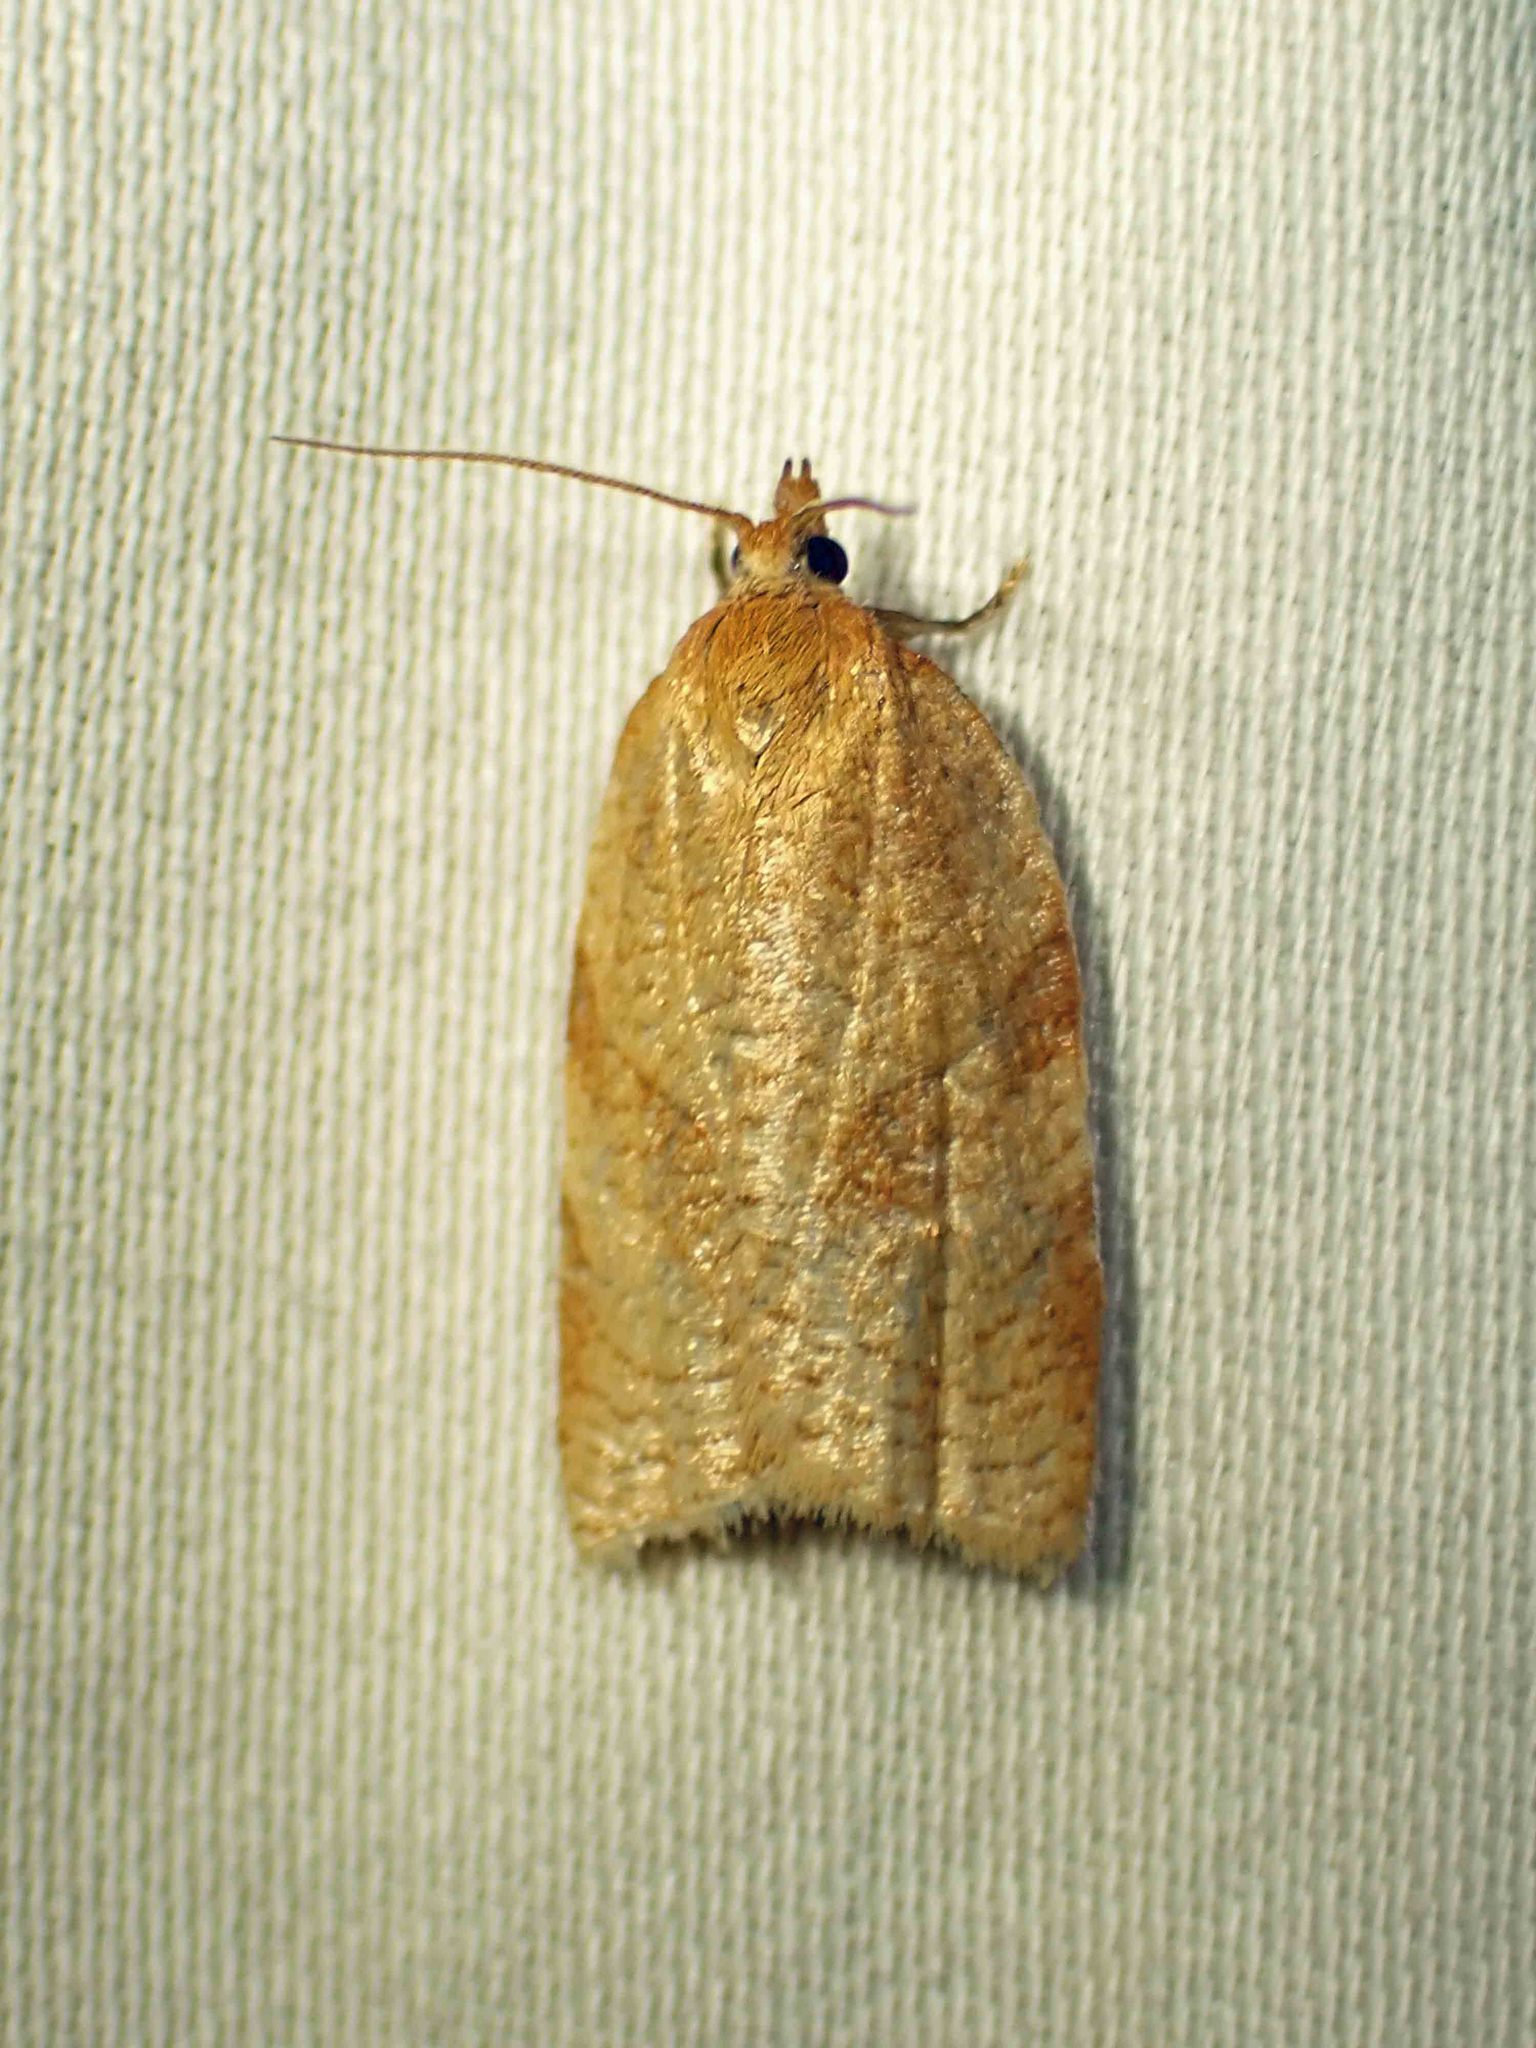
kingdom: Animalia
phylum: Arthropoda
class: Insecta
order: Lepidoptera
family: Tortricidae
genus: Aphelia
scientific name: Aphelia alleniana
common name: Allen's tortrix moth
